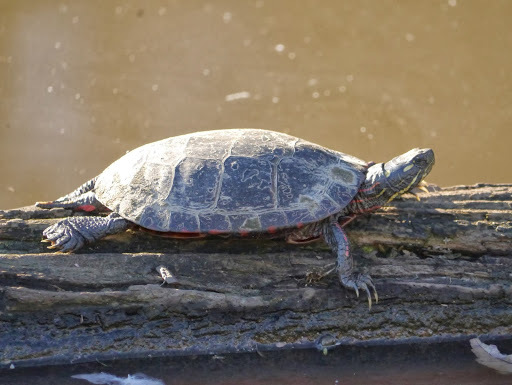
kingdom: Animalia
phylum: Chordata
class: Testudines
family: Emydidae
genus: Chrysemys
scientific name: Chrysemys picta
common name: Painted turtle
